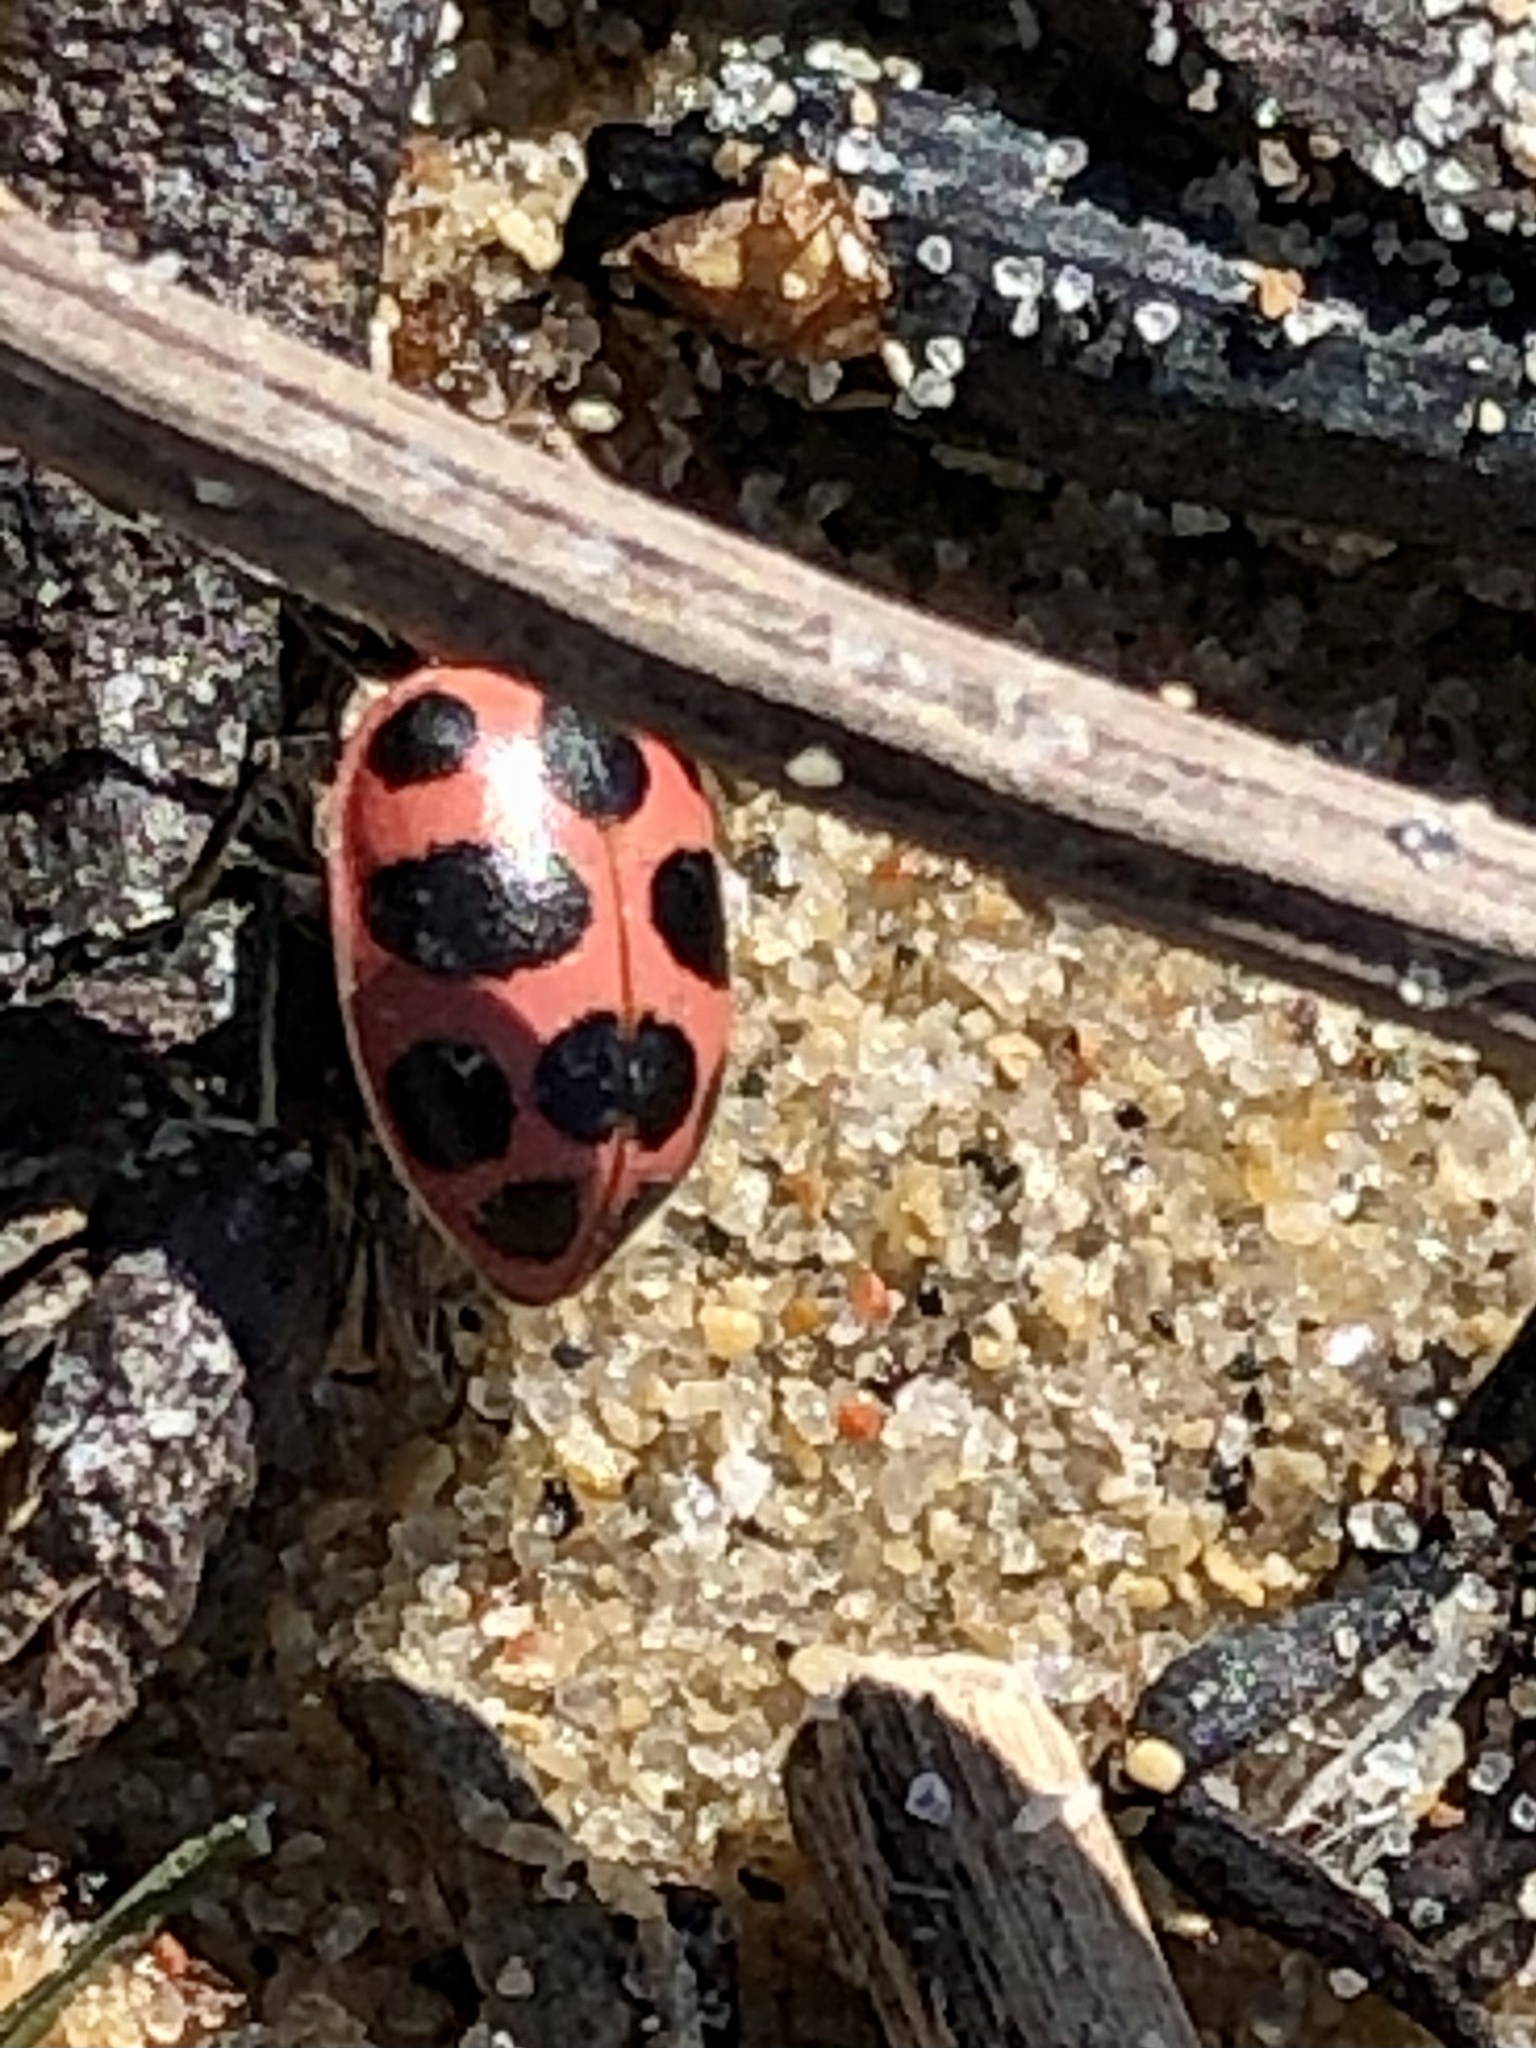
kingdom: Animalia
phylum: Arthropoda
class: Insecta
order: Coleoptera
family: Coccinellidae
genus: Coleomegilla
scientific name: Coleomegilla maculata
